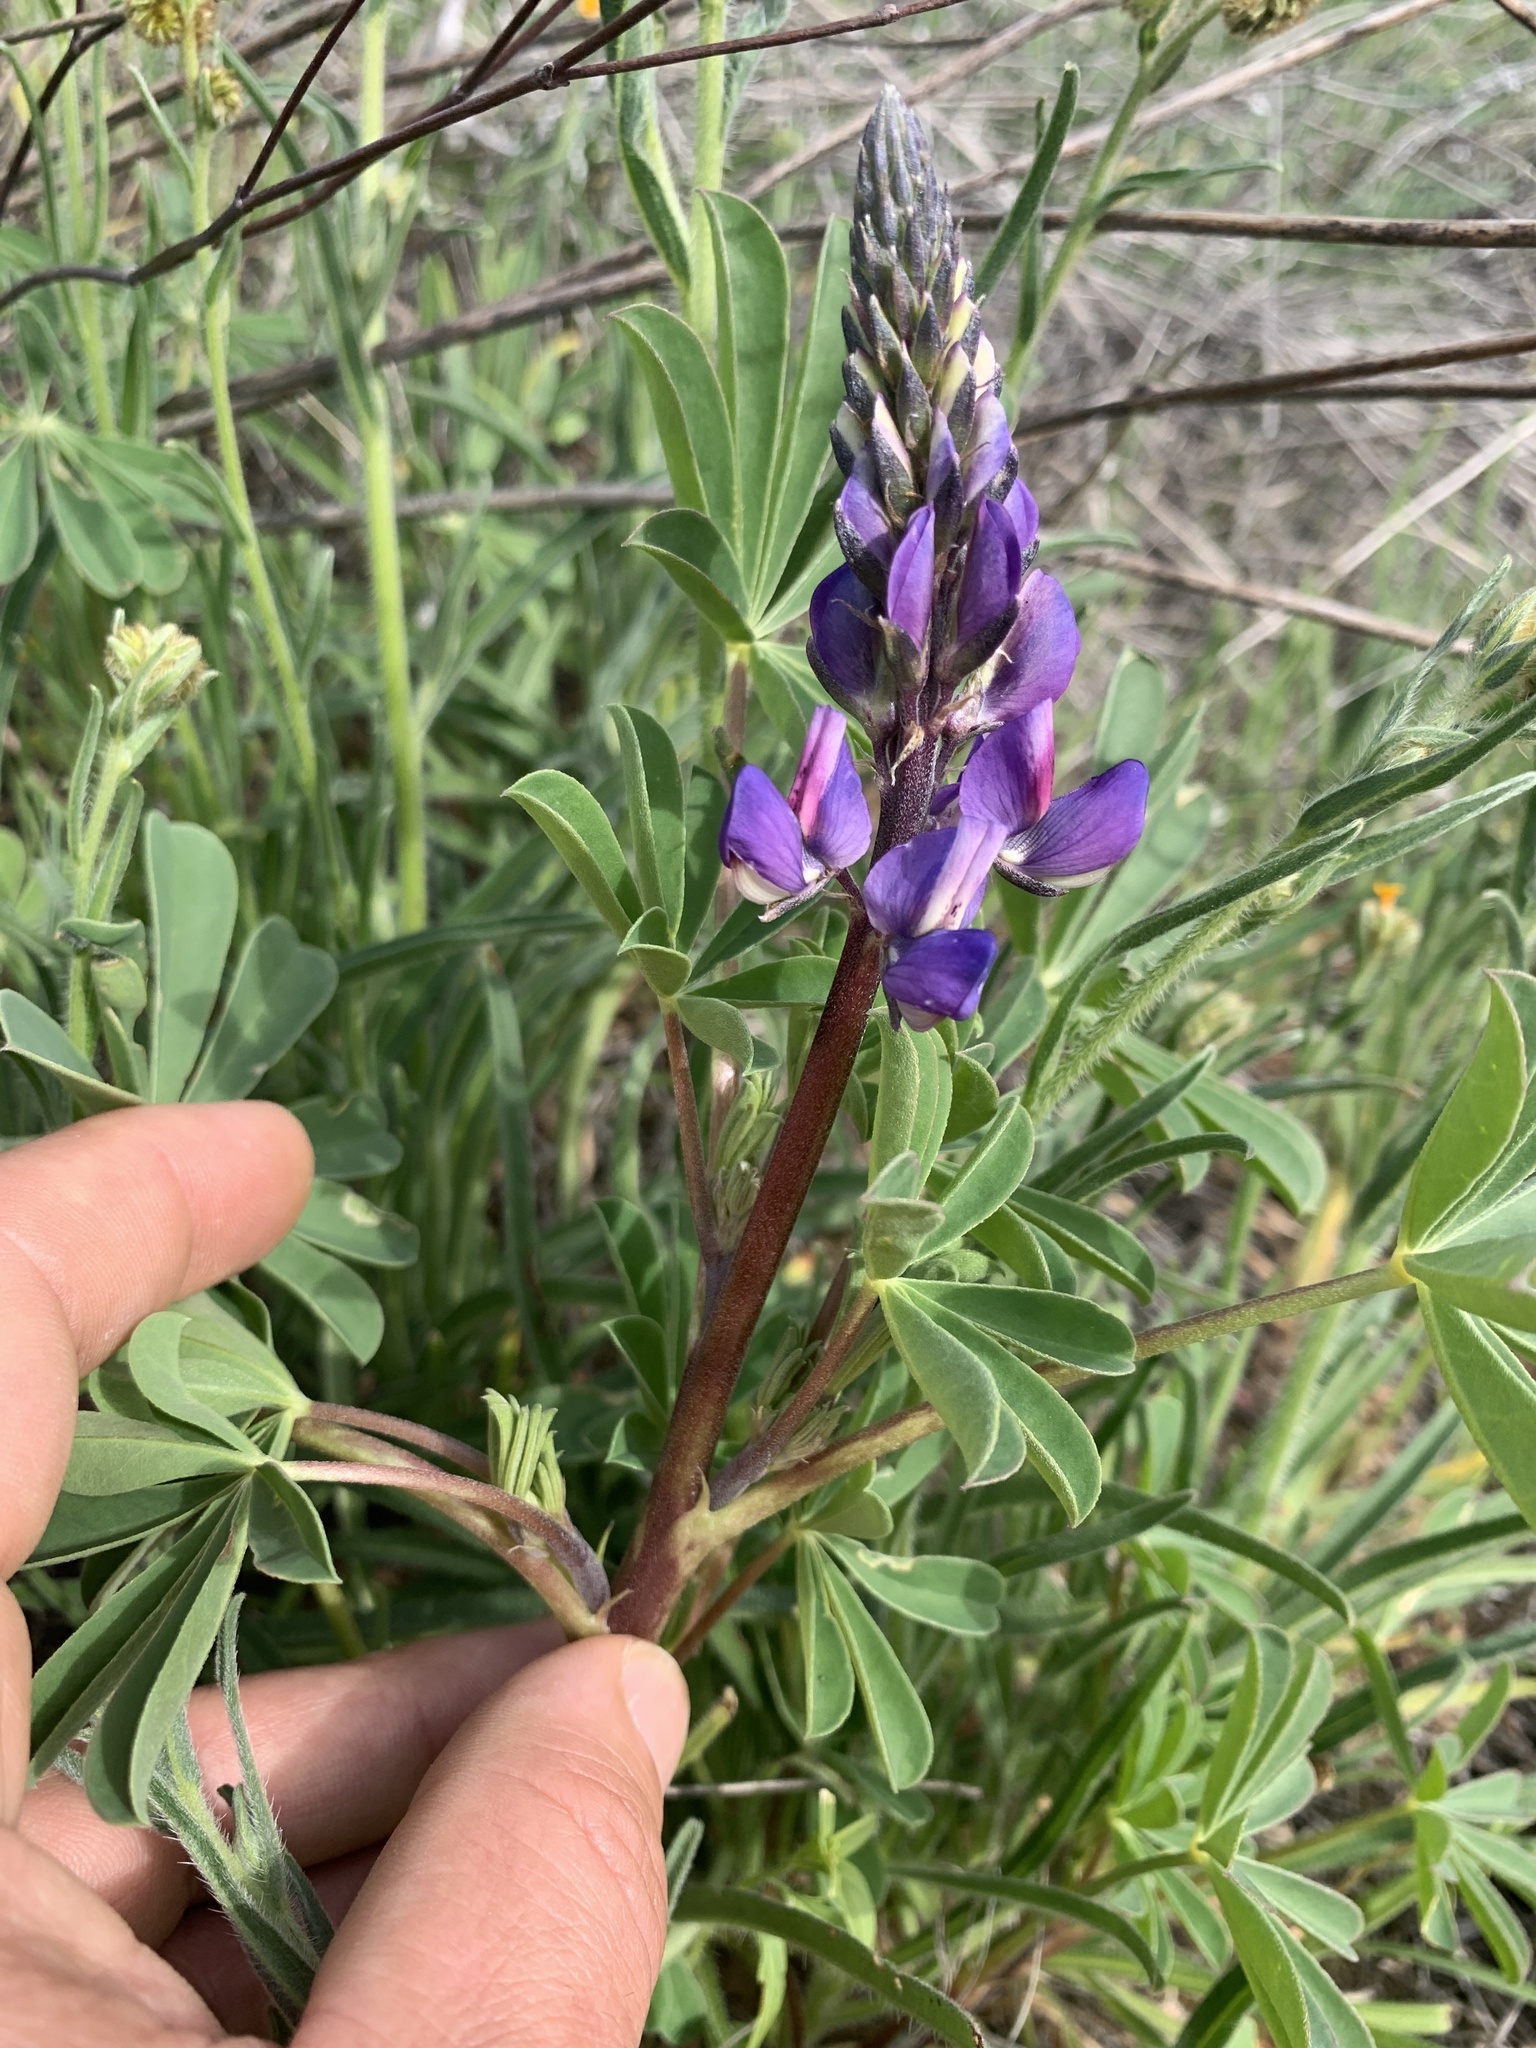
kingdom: Plantae
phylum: Tracheophyta
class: Magnoliopsida
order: Fabales
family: Fabaceae
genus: Lupinus
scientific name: Lupinus succulentus
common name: Arroyo lupine
